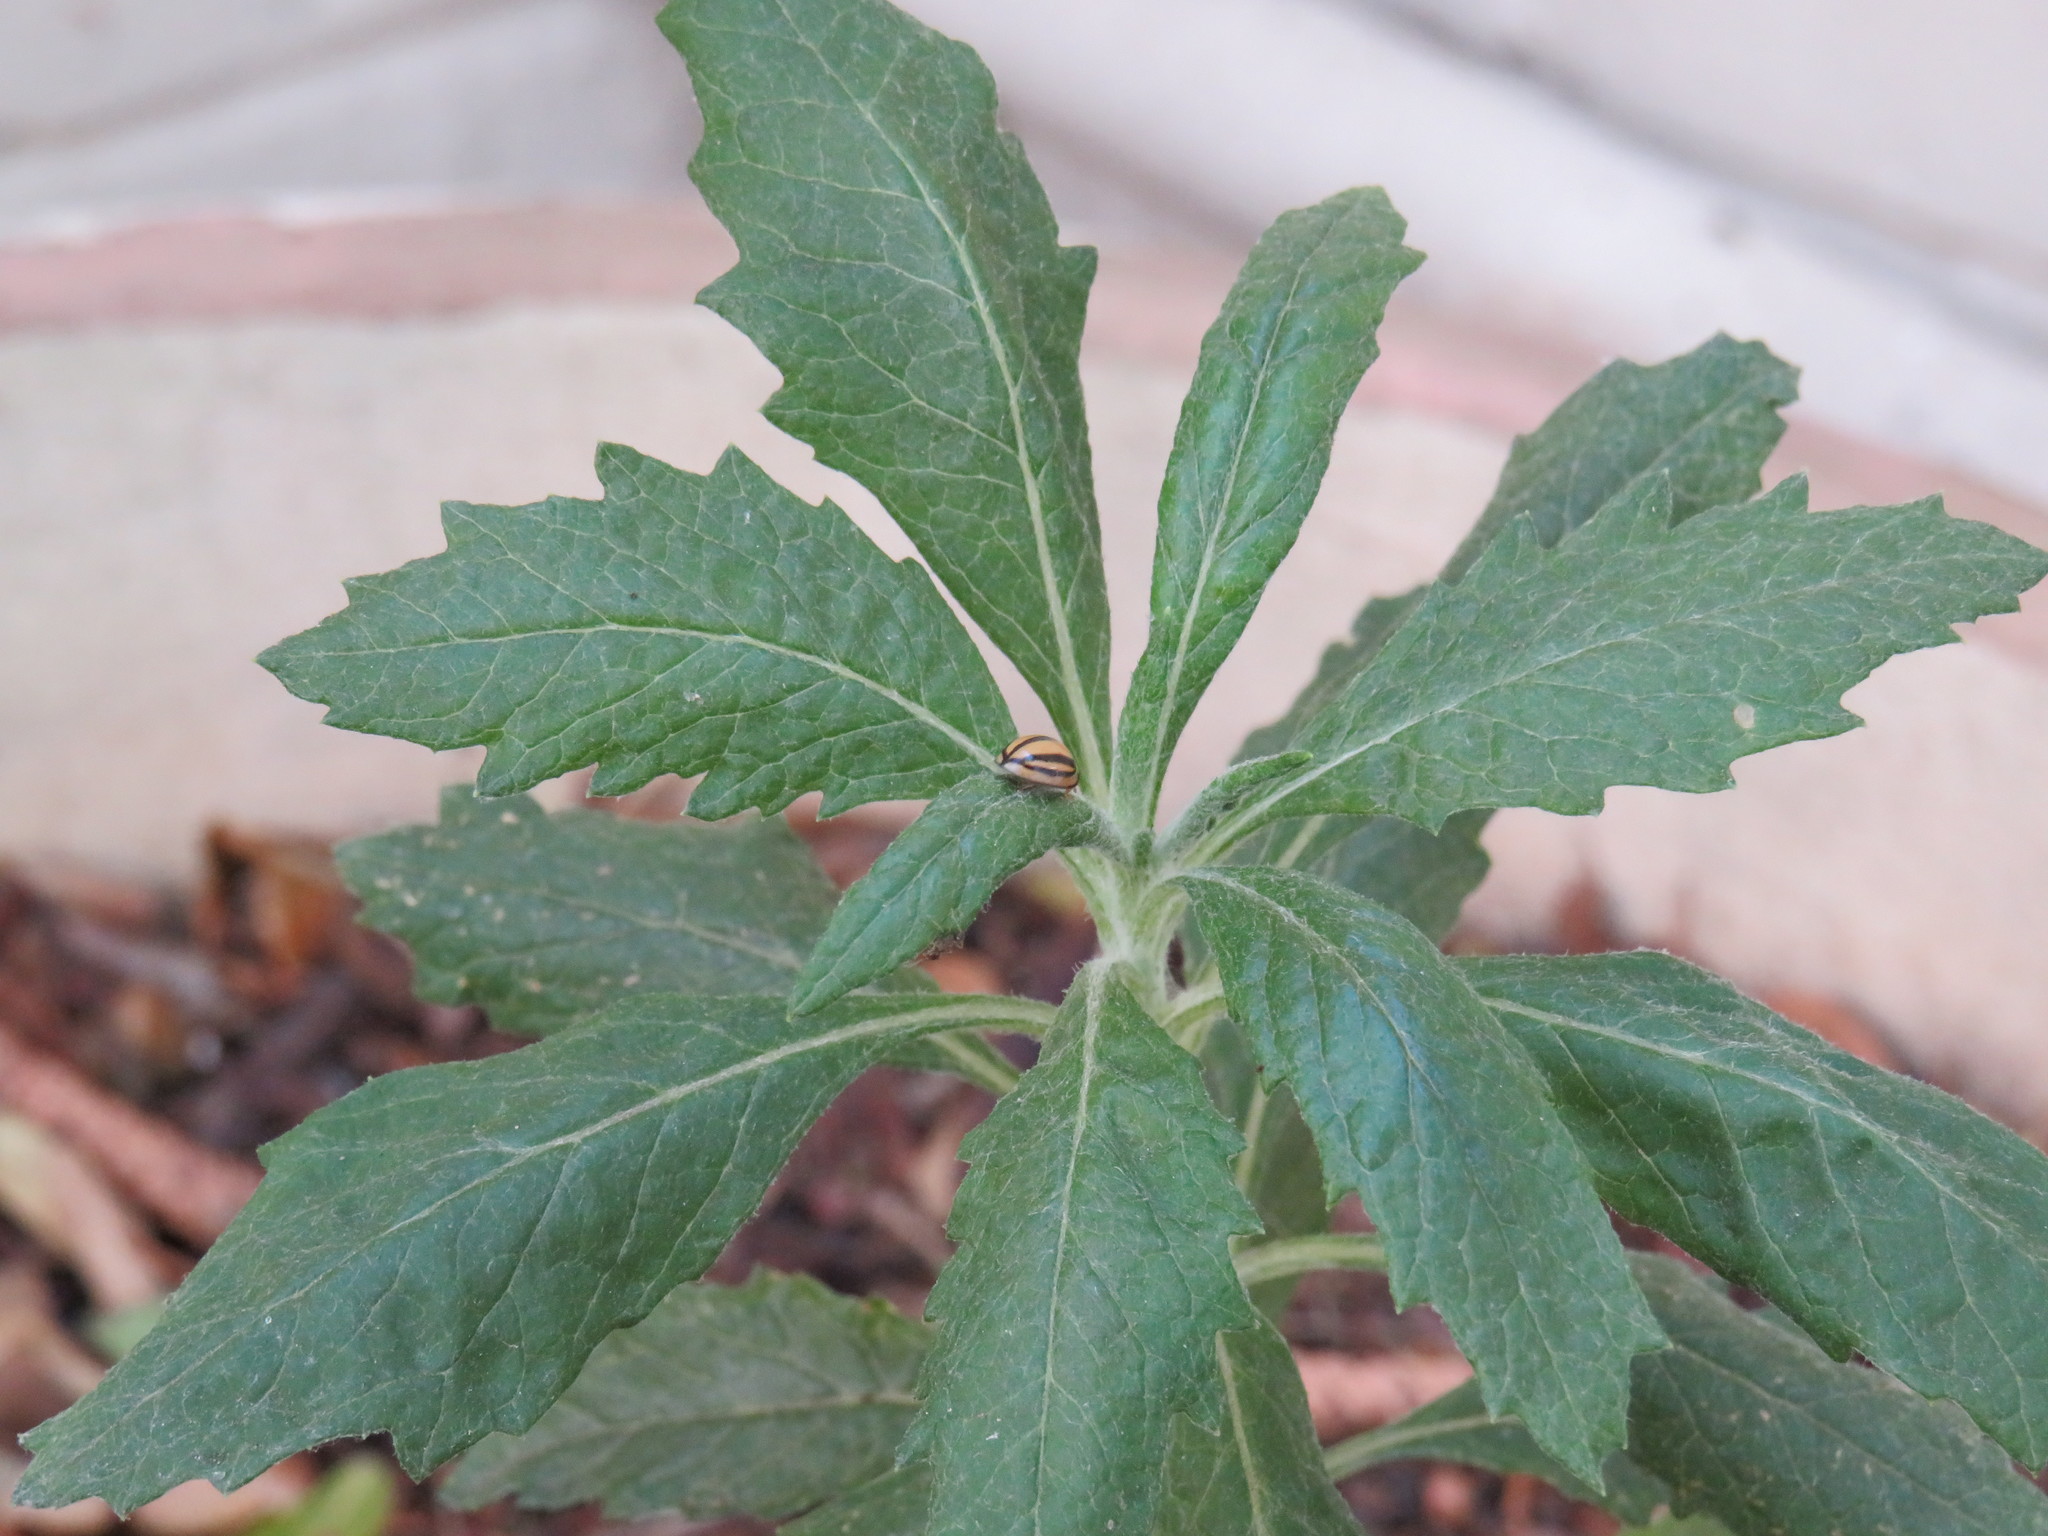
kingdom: Animalia
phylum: Arthropoda
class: Insecta
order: Coleoptera
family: Coccinellidae
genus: Cheilomenes
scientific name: Cheilomenes propinqua
